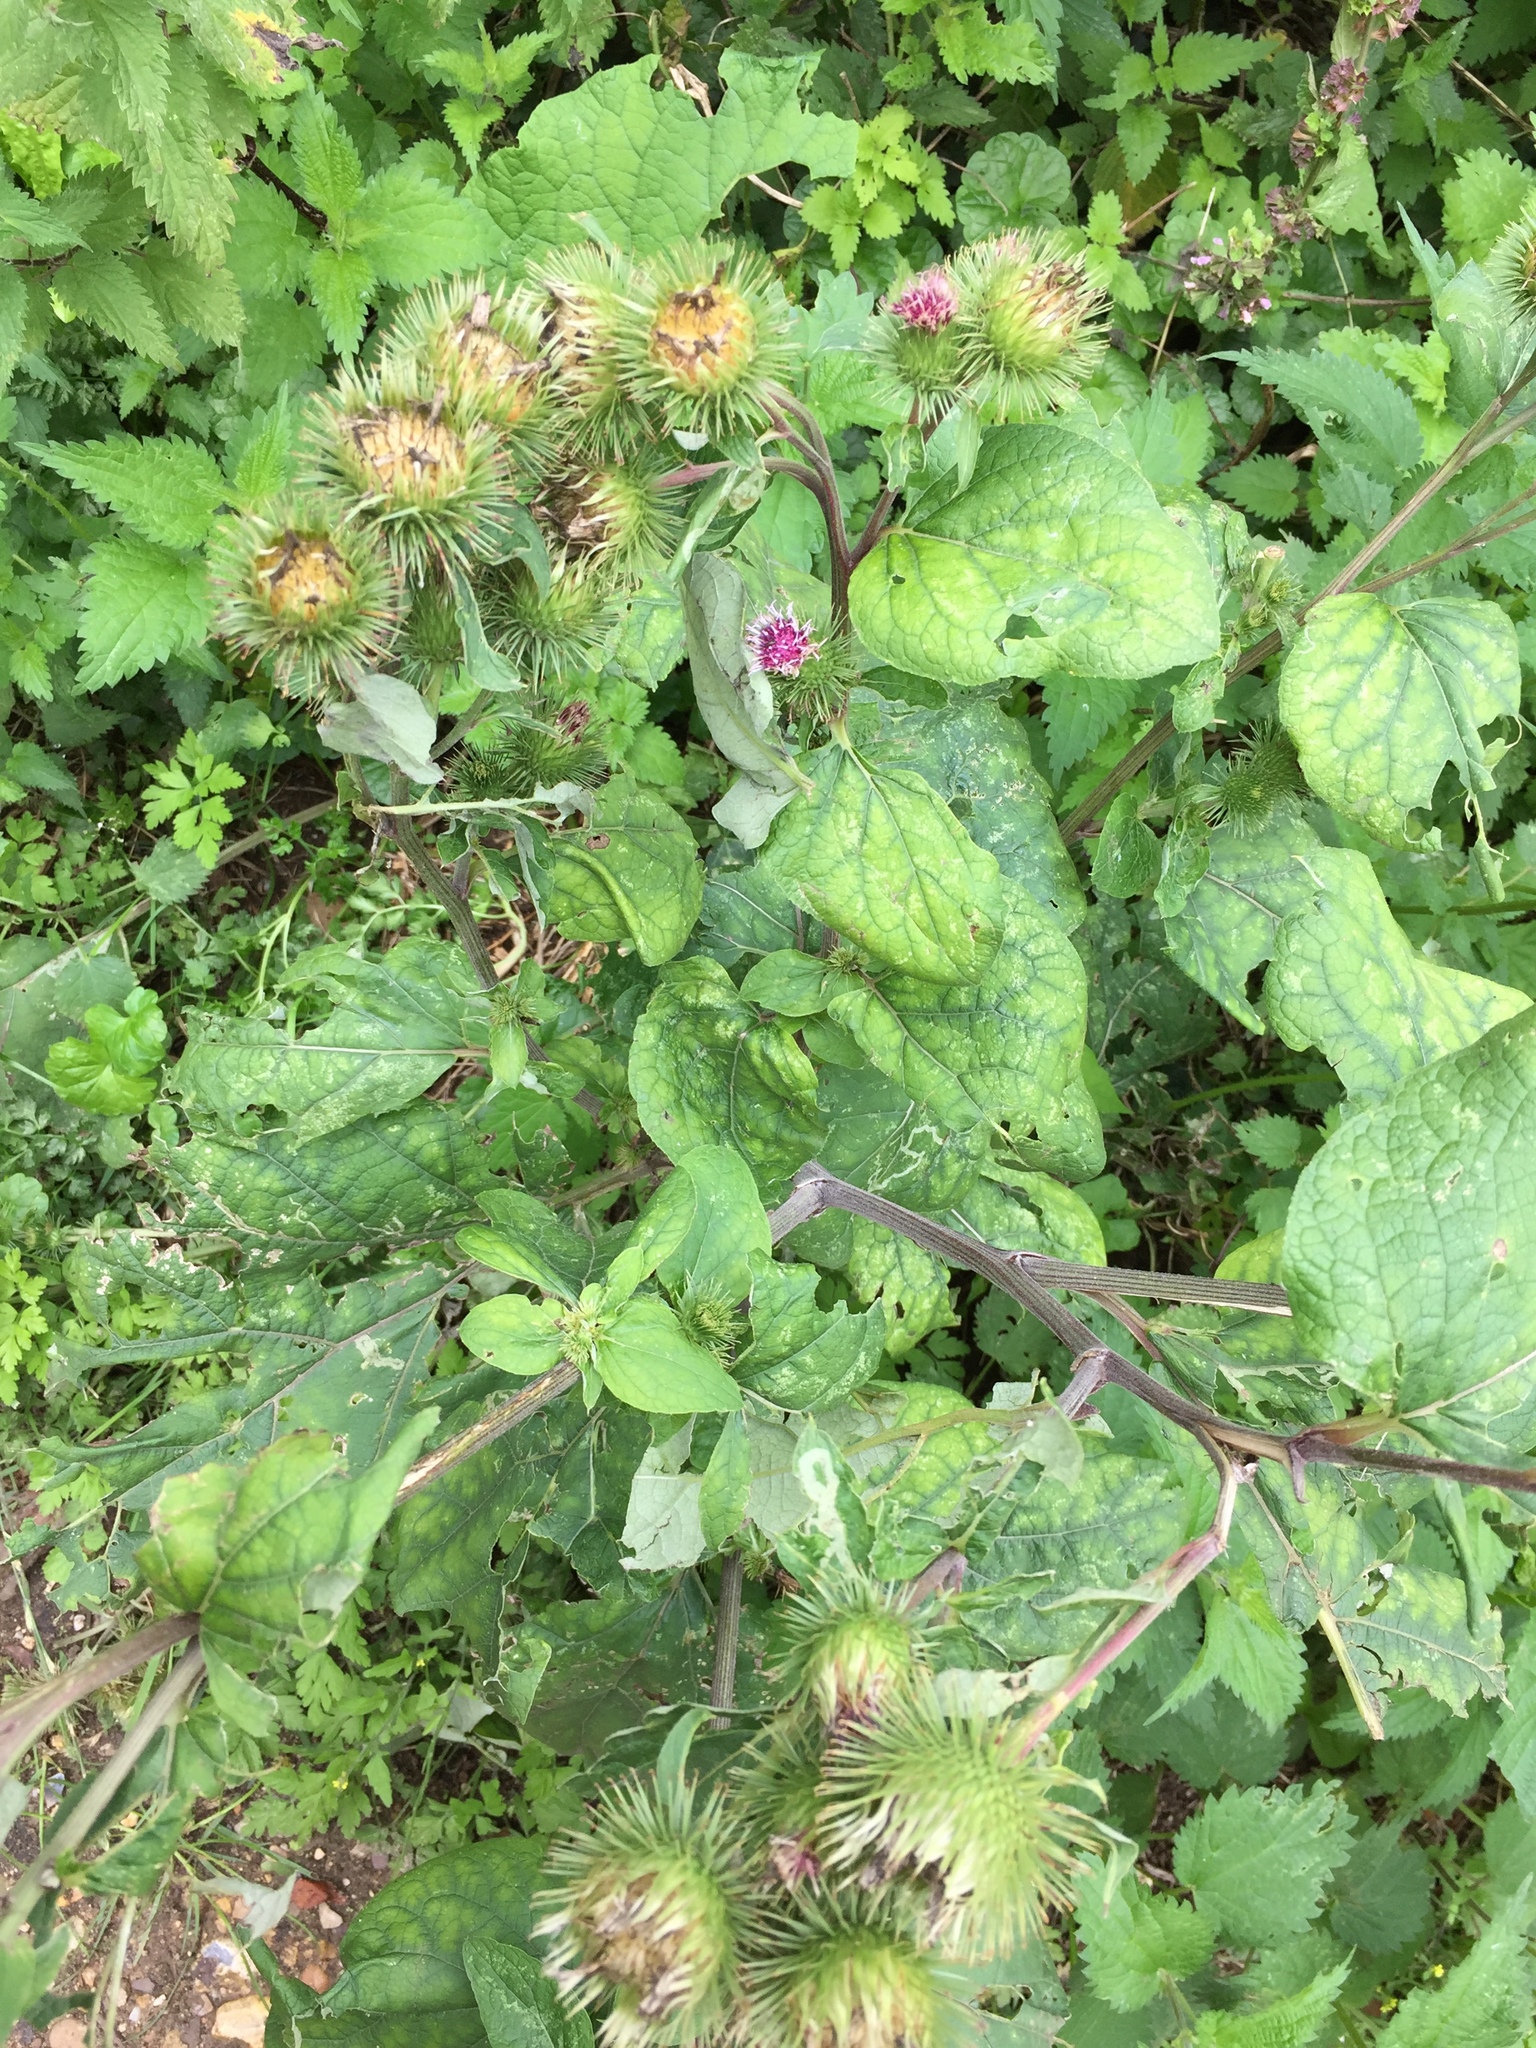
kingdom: Plantae
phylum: Tracheophyta
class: Magnoliopsida
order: Asterales
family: Asteraceae
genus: Arctium
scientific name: Arctium lappa
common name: Greater burdock
